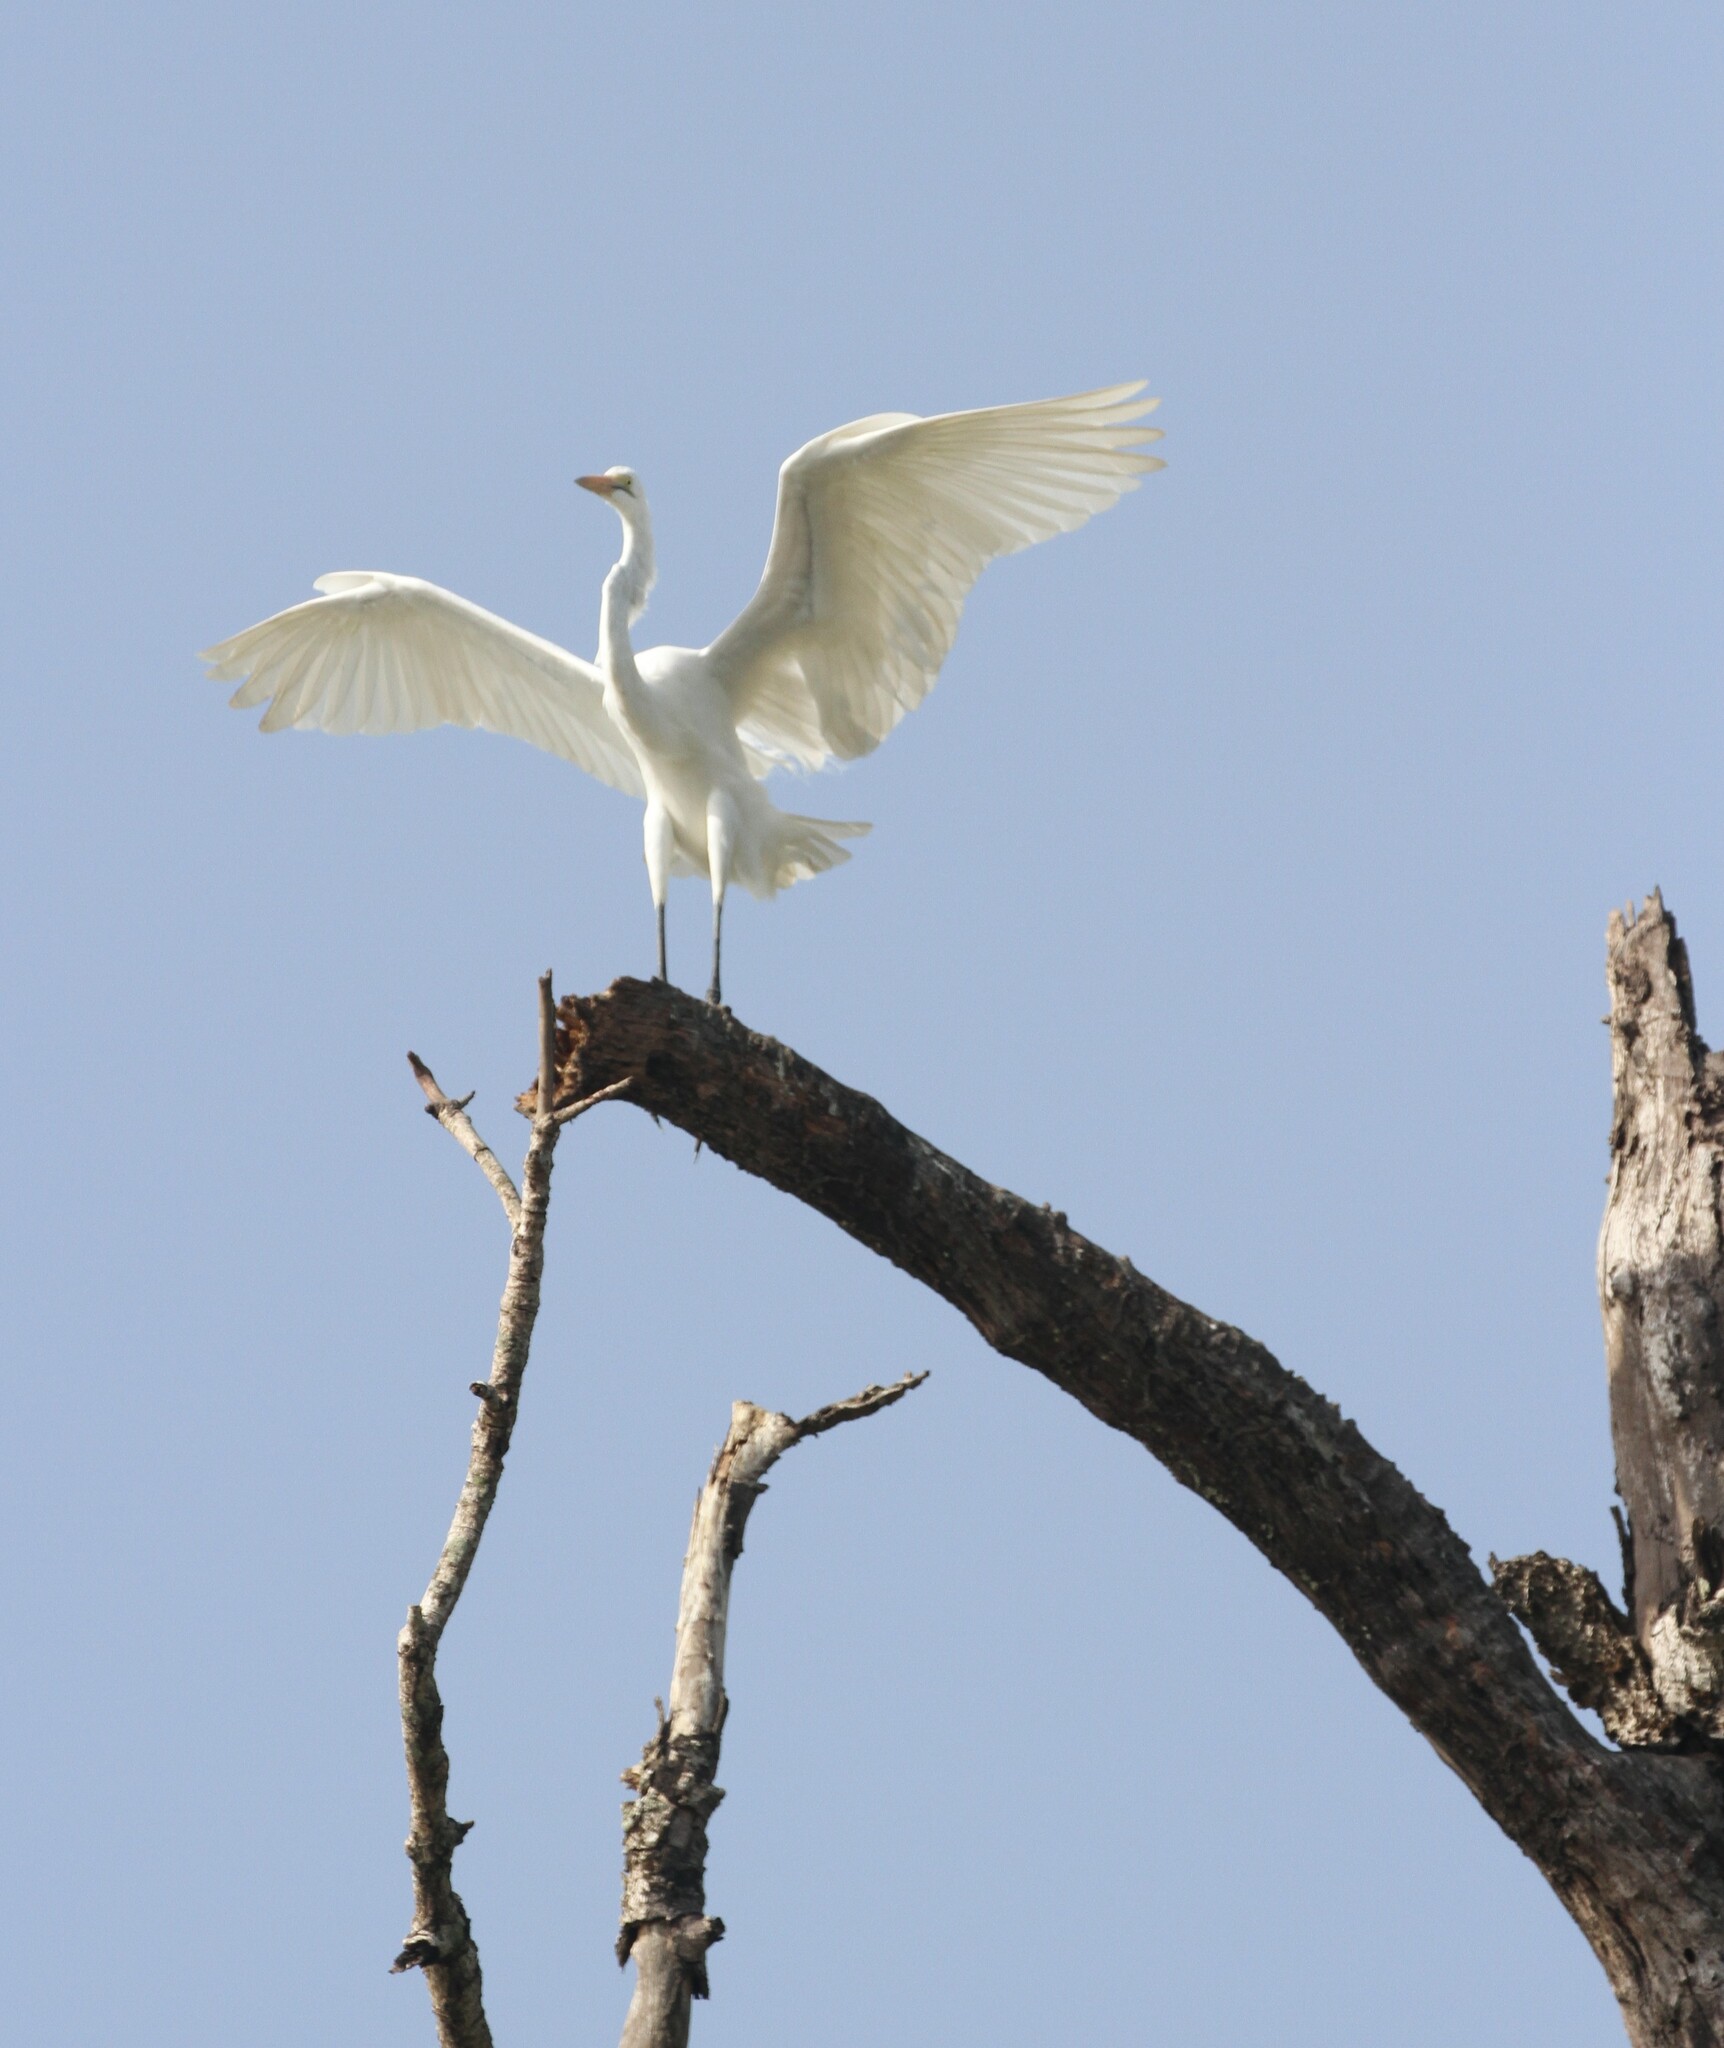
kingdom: Animalia
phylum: Chordata
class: Aves
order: Pelecaniformes
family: Ardeidae
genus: Ardea
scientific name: Ardea alba
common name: Great egret
